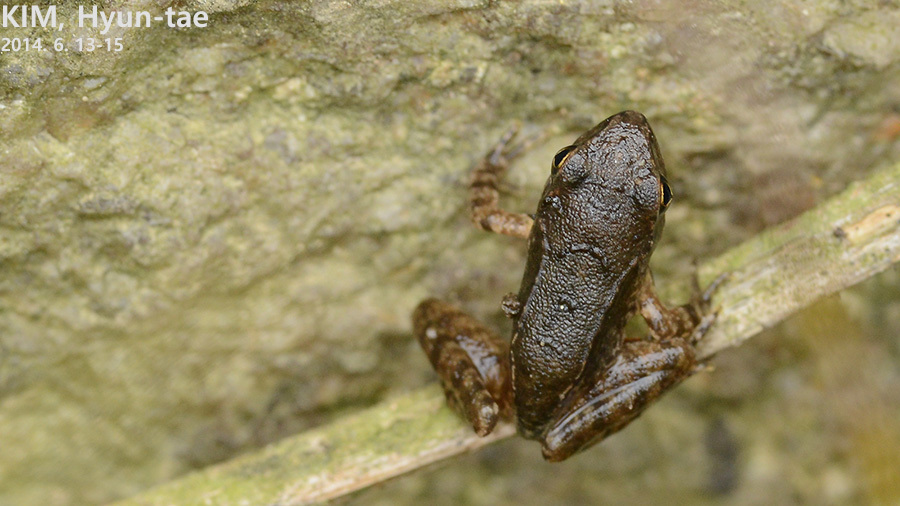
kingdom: Animalia
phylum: Chordata
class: Amphibia
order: Anura
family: Ranidae
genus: Rana
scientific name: Rana uenoi
